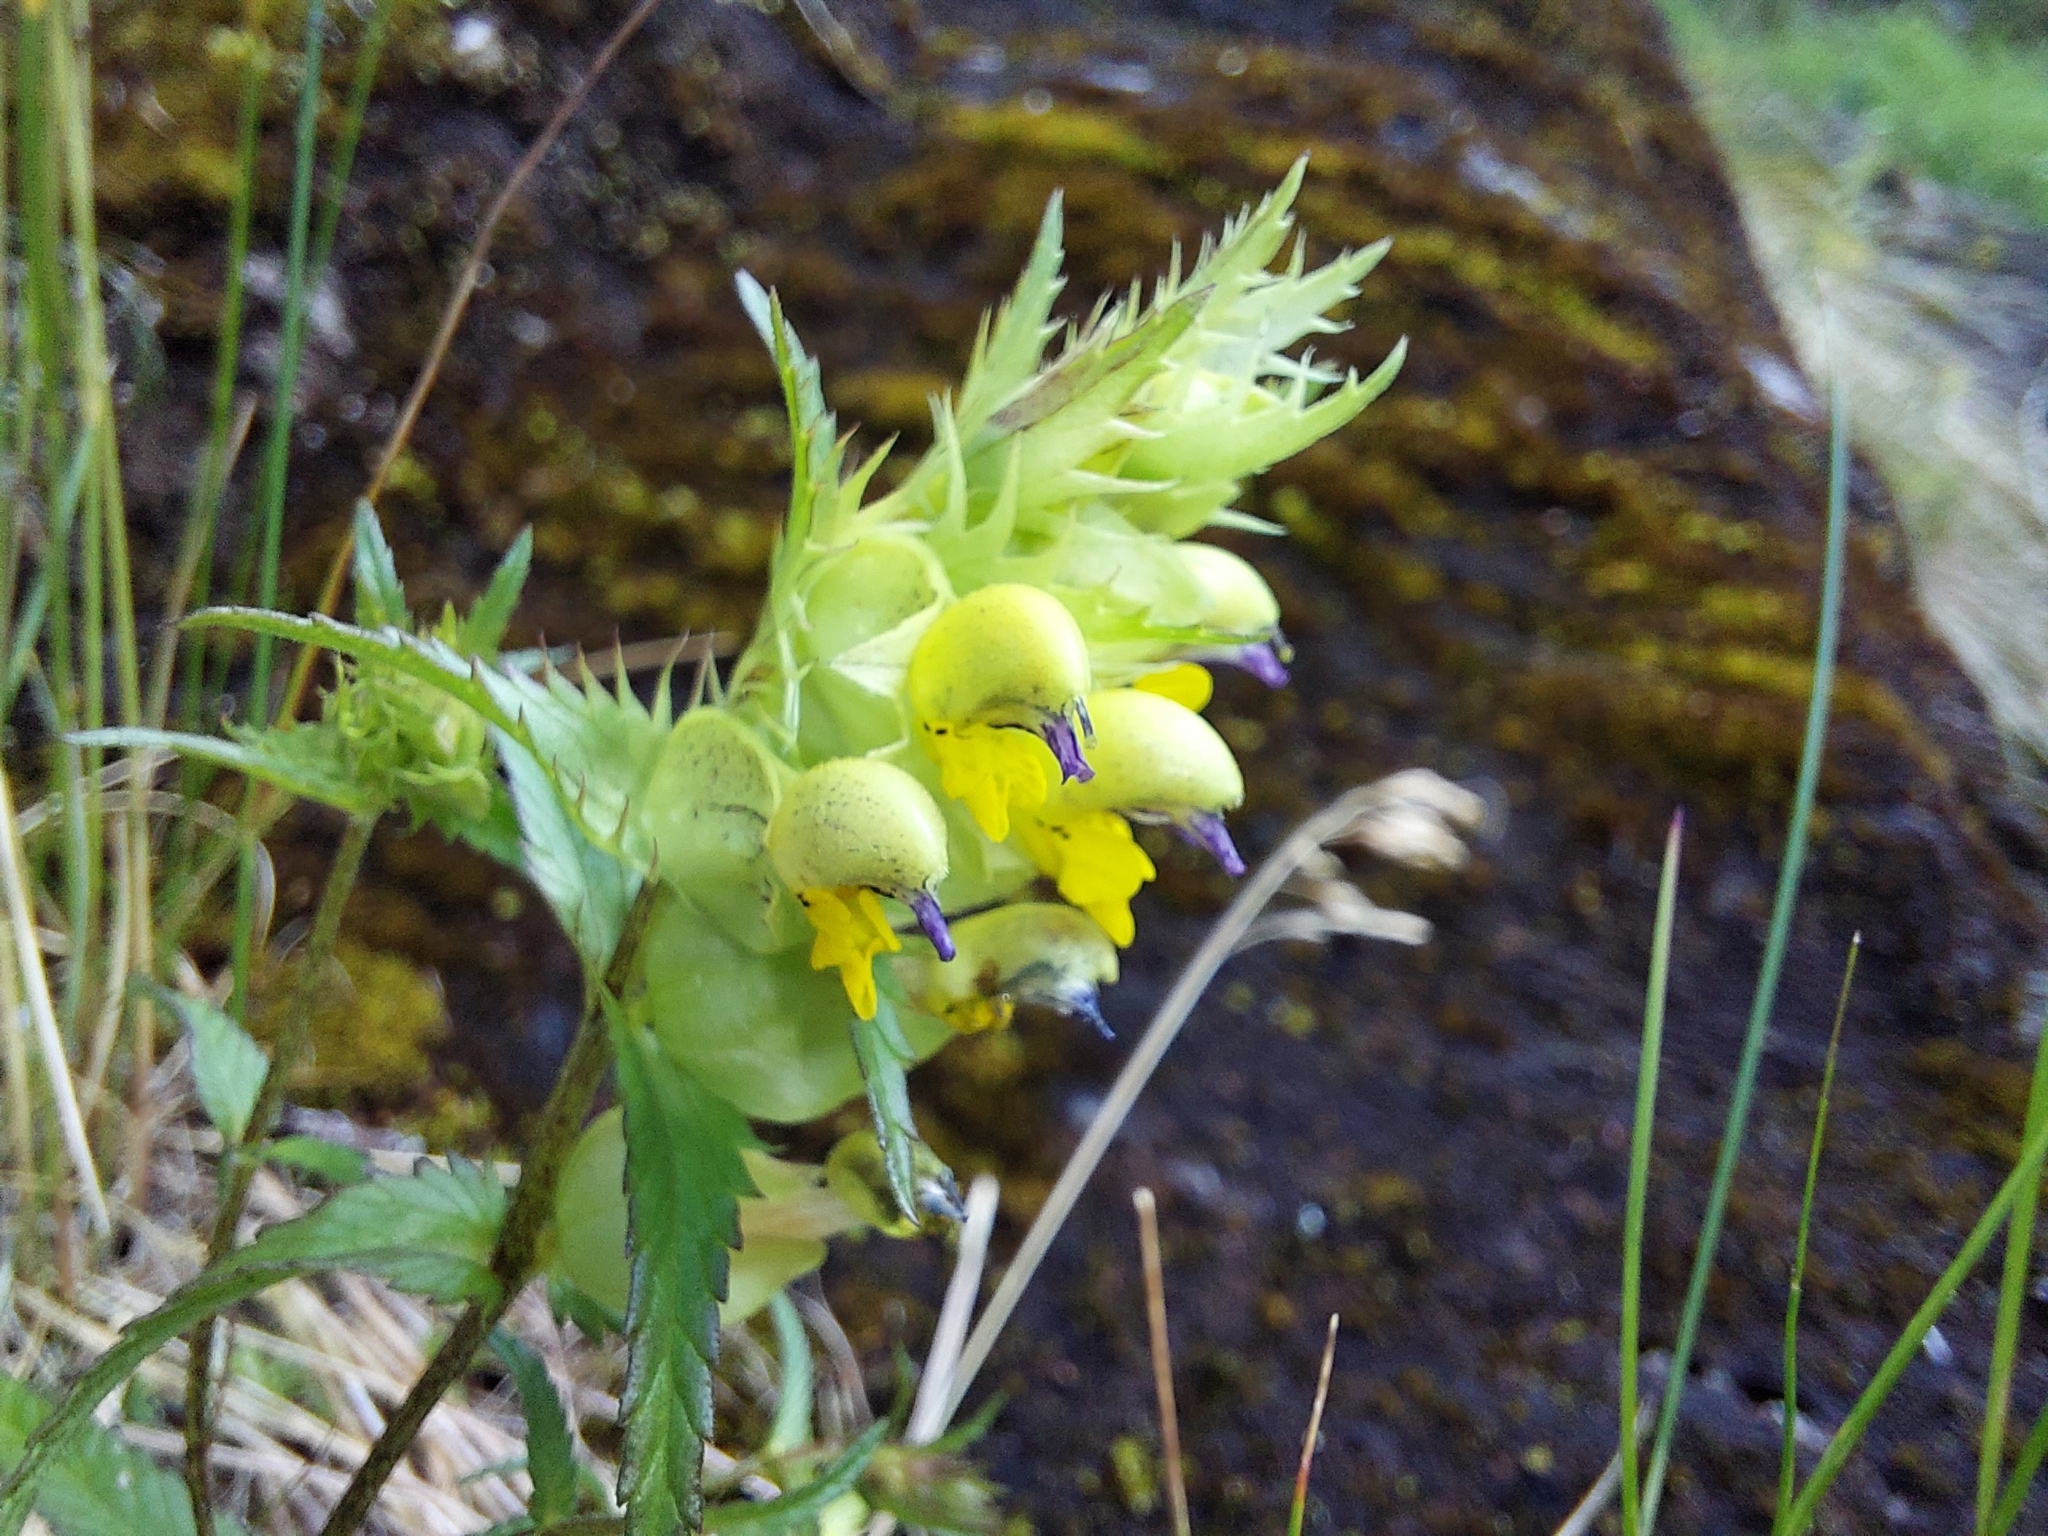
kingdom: Plantae
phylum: Tracheophyta
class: Magnoliopsida
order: Lamiales
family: Orobanchaceae
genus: Rhinanthus
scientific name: Rhinanthus glacialis
